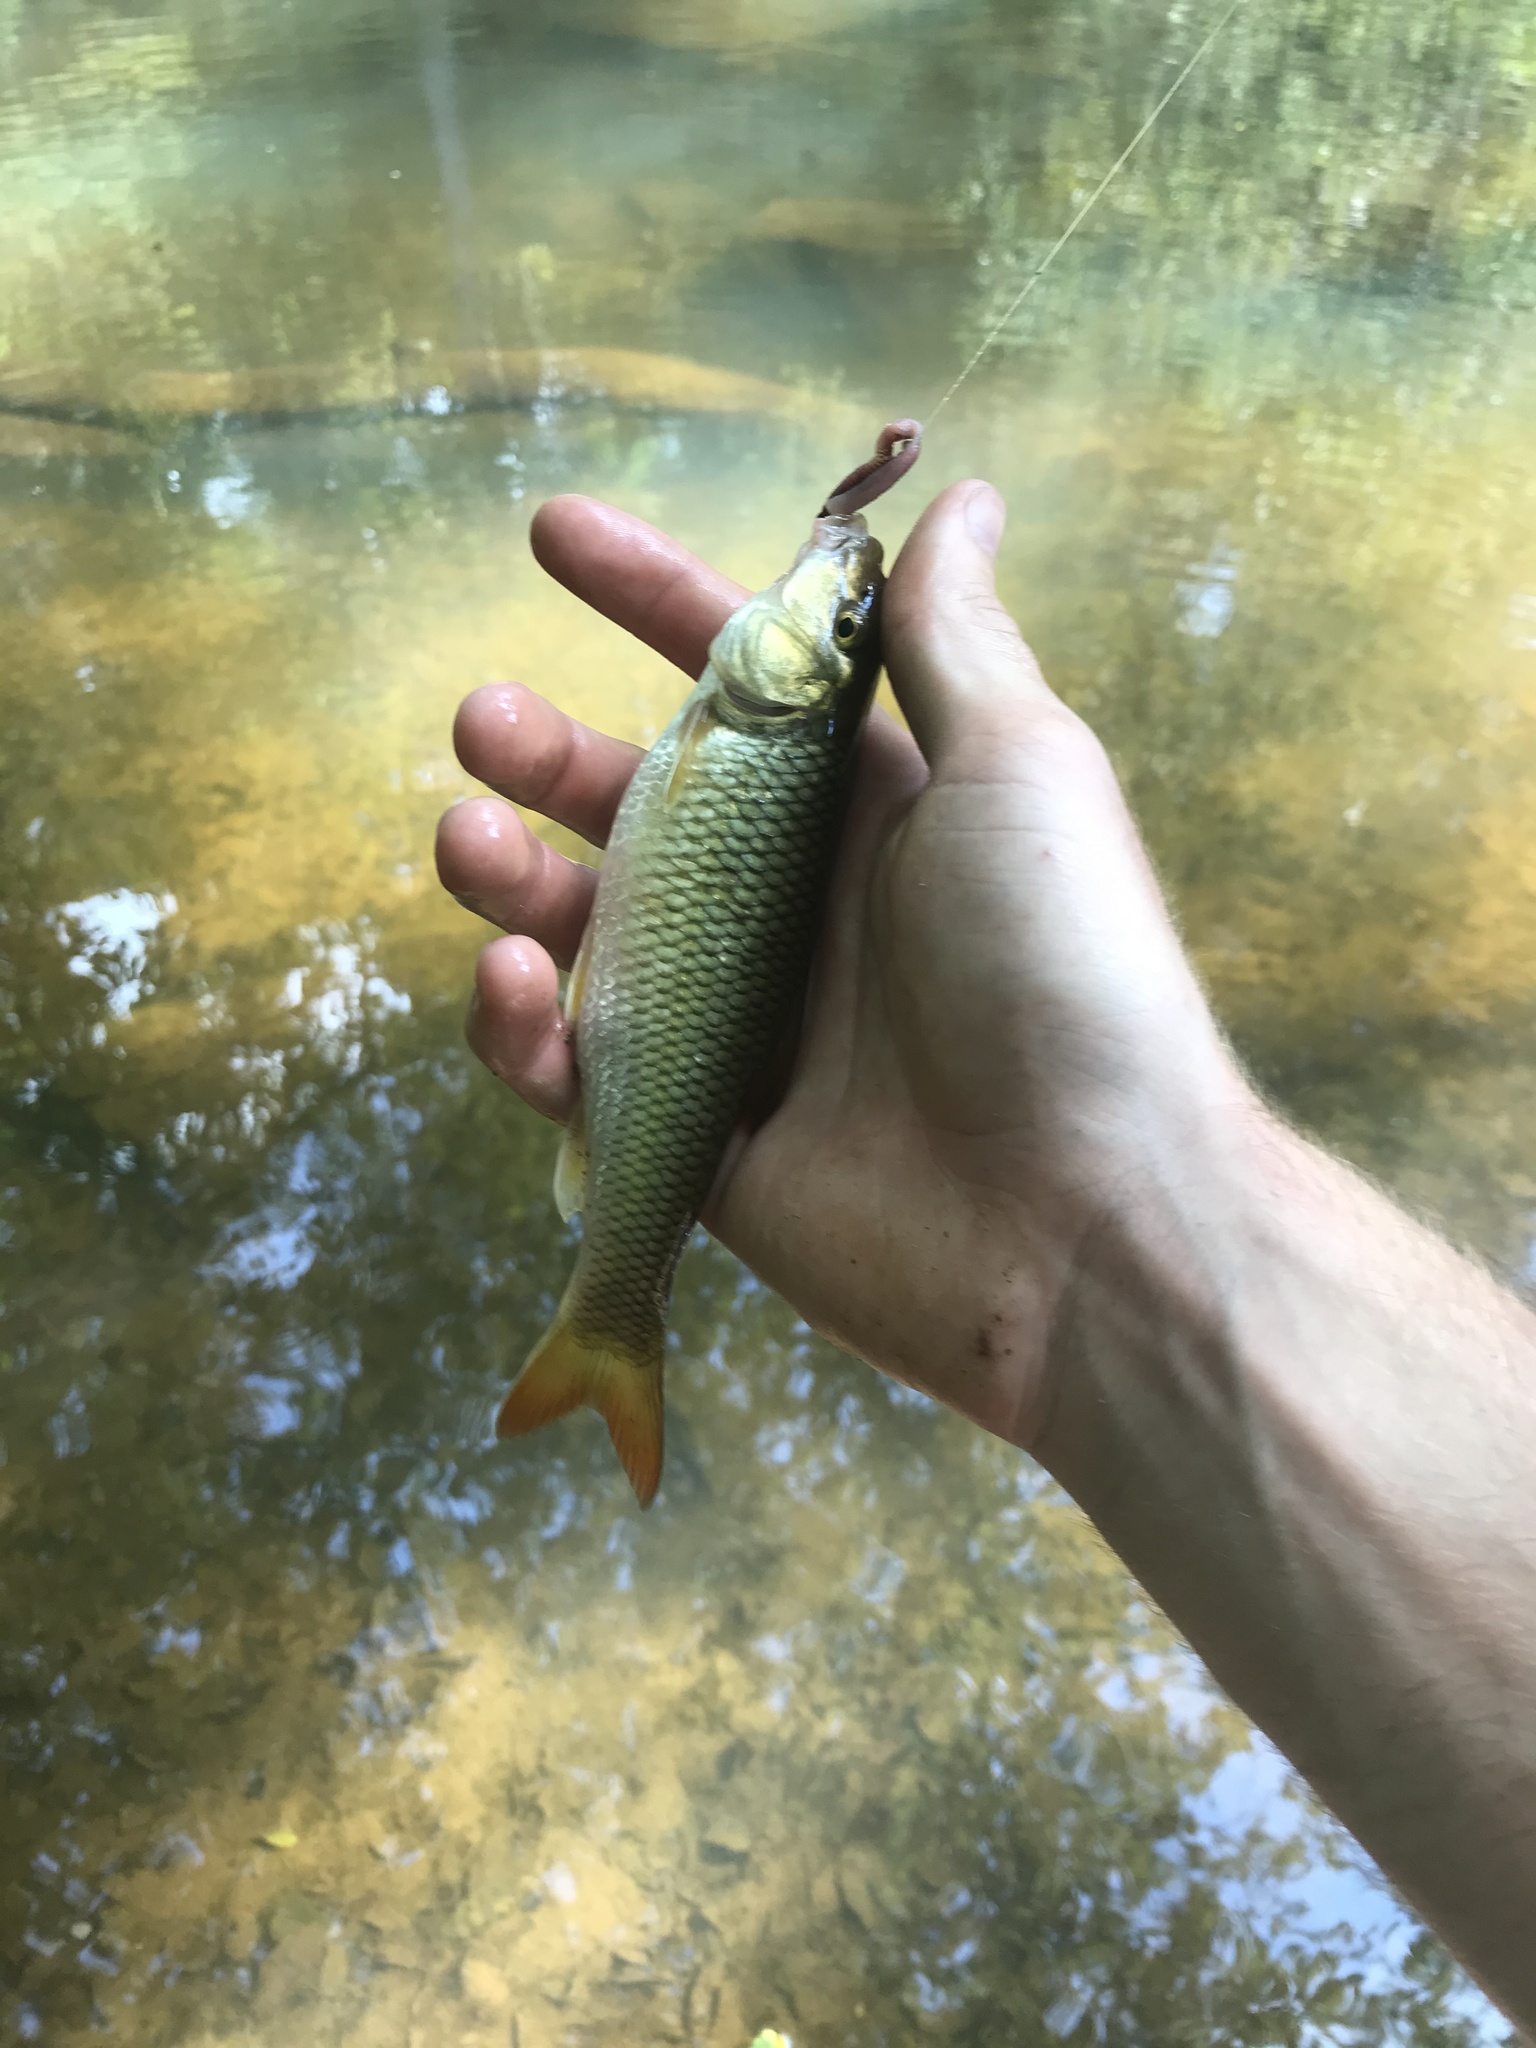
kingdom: Animalia
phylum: Chordata
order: Cypriniformes
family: Cyprinidae
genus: Nocomis
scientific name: Nocomis raneyi
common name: Bull chub
